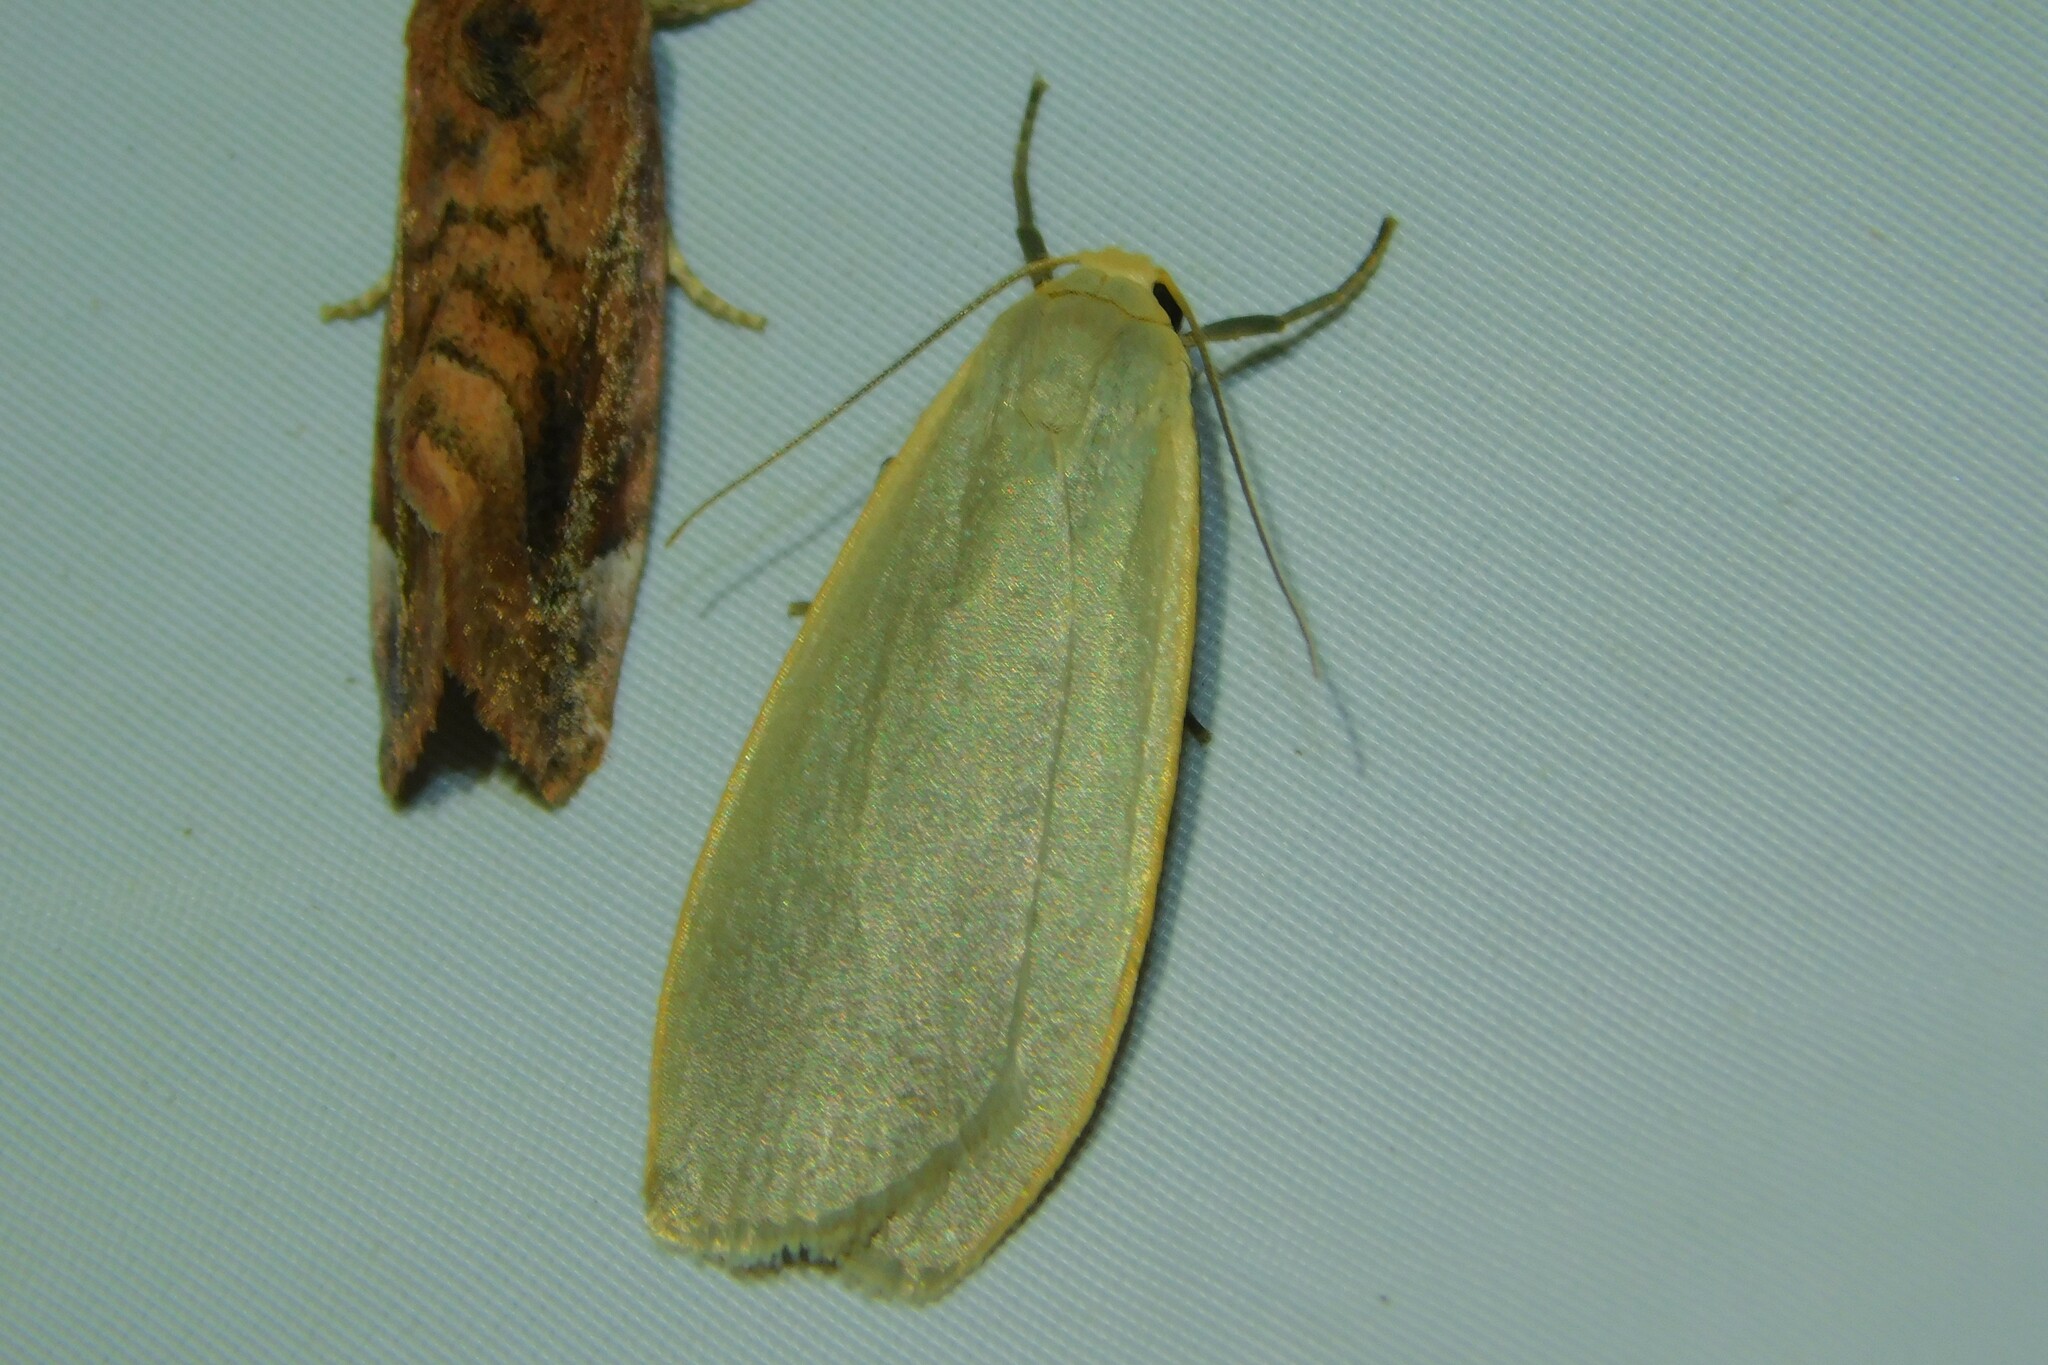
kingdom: Animalia
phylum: Arthropoda
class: Insecta
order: Lepidoptera
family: Erebidae
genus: Collita
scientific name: Collita griseola
